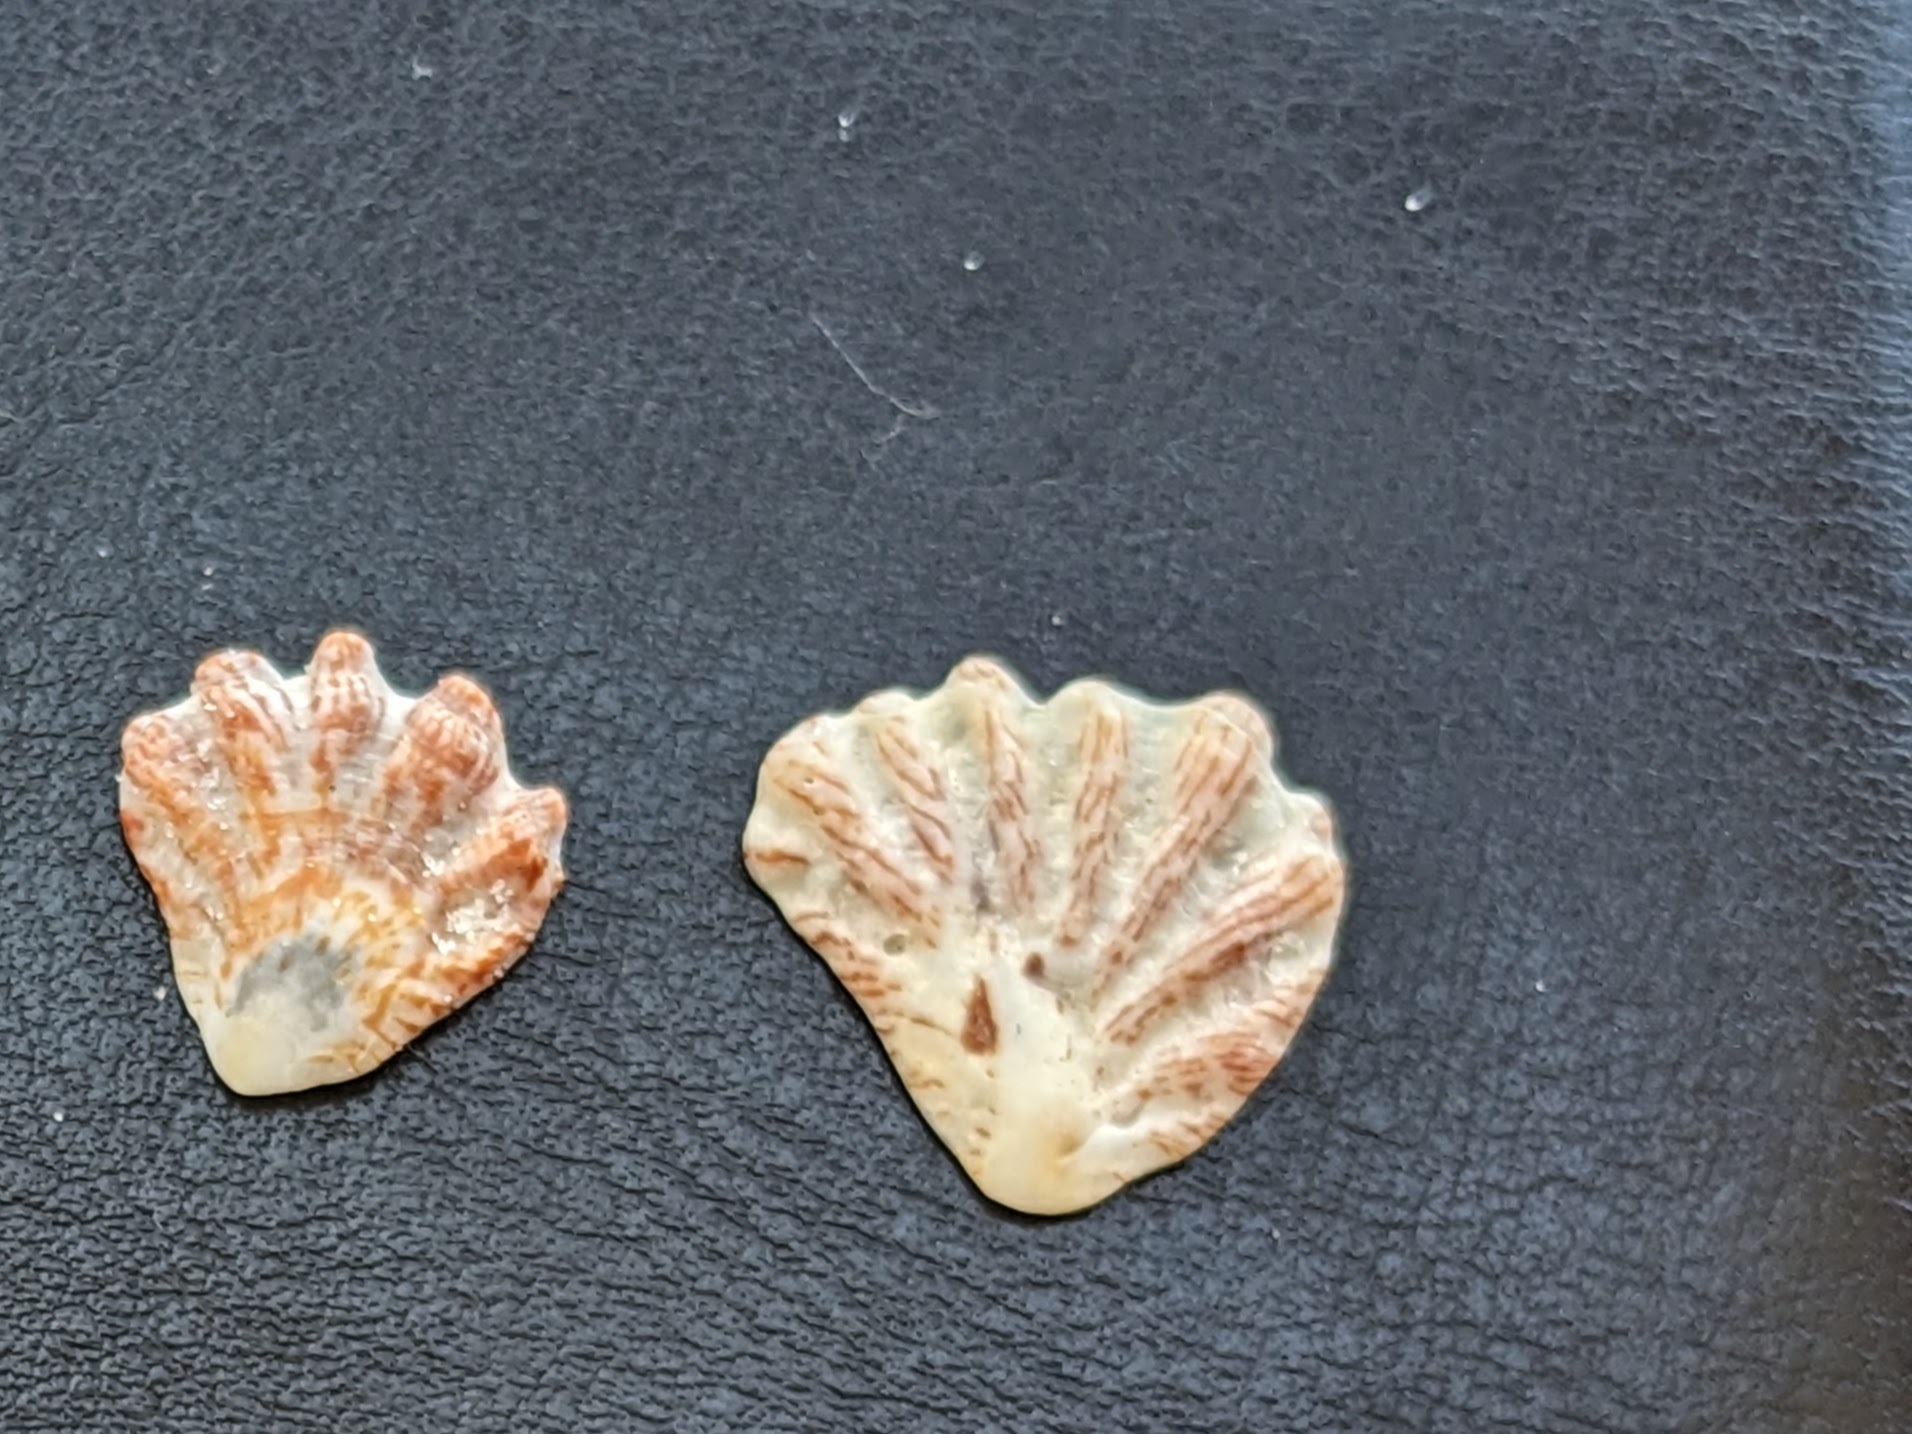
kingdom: Animalia
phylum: Mollusca
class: Bivalvia
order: Pectinida
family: Plicatulidae
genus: Plicatula
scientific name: Plicatula gibbosa
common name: Atlantic kitten's paw
